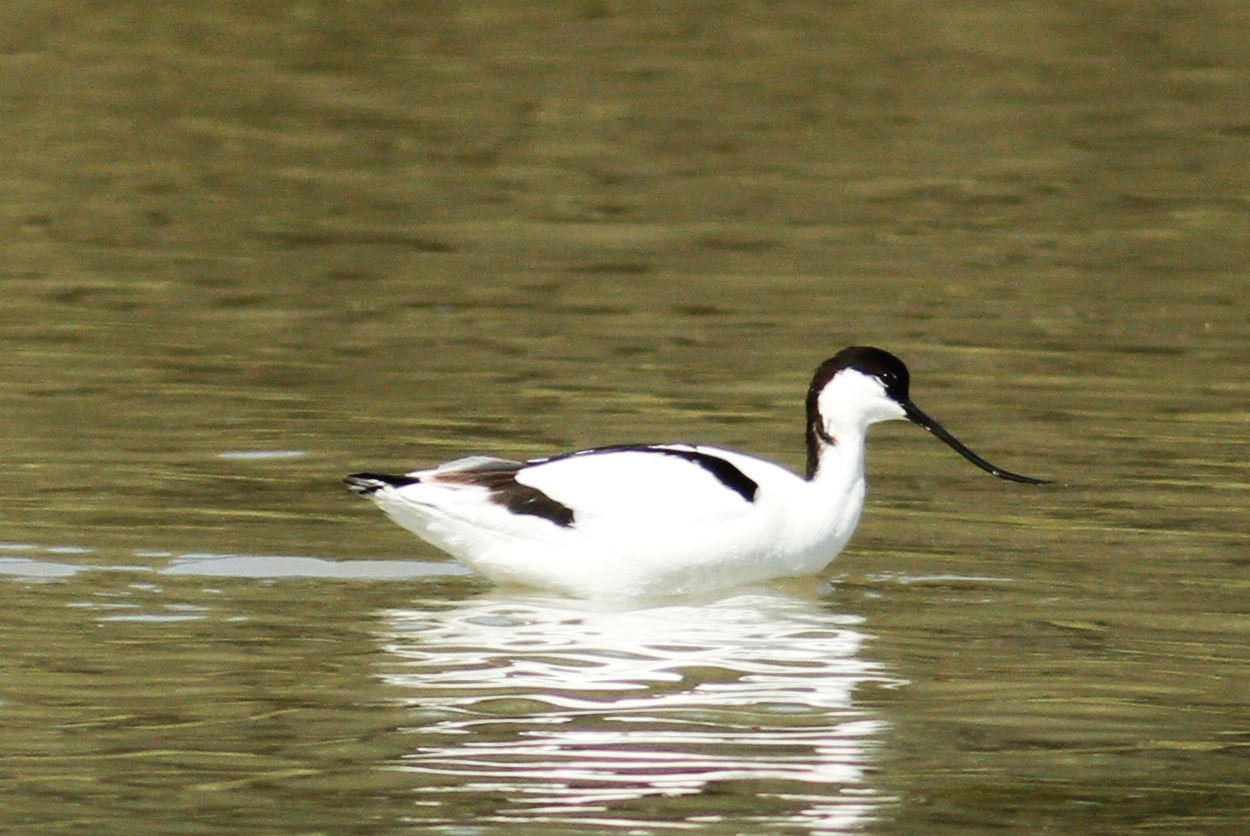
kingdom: Animalia
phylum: Chordata
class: Aves
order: Charadriiformes
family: Recurvirostridae
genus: Recurvirostra
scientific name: Recurvirostra avosetta
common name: Pied avocet
